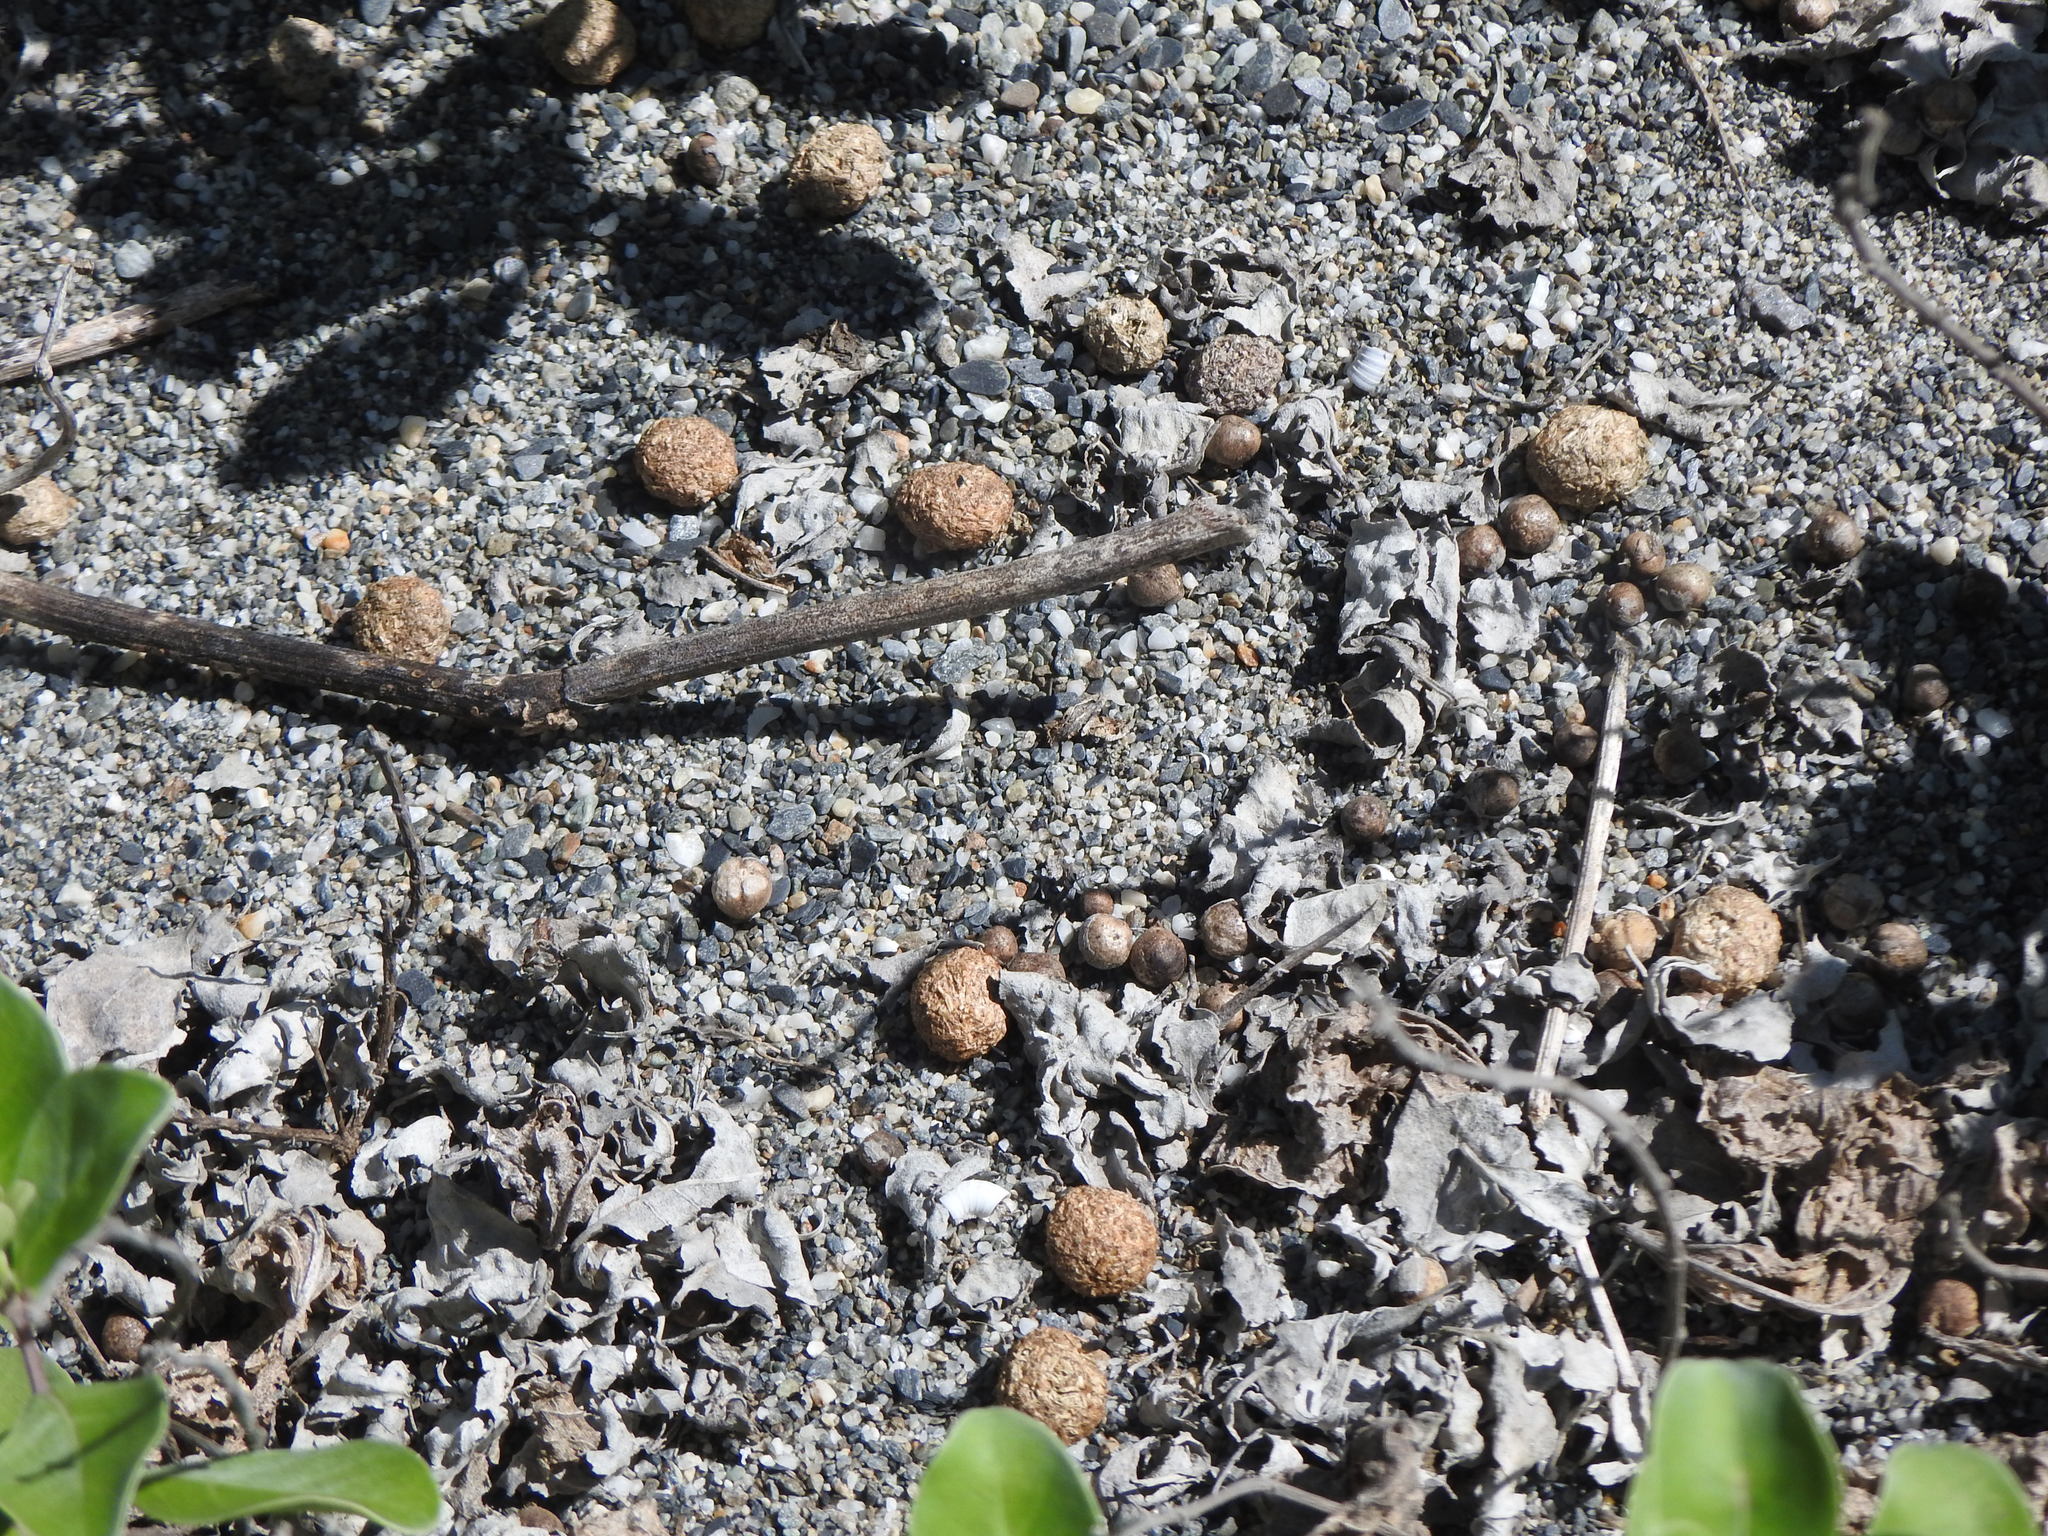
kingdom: Animalia
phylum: Chordata
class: Mammalia
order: Lagomorpha
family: Leporidae
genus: Lepus
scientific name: Lepus sinensis
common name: Chinese hare
